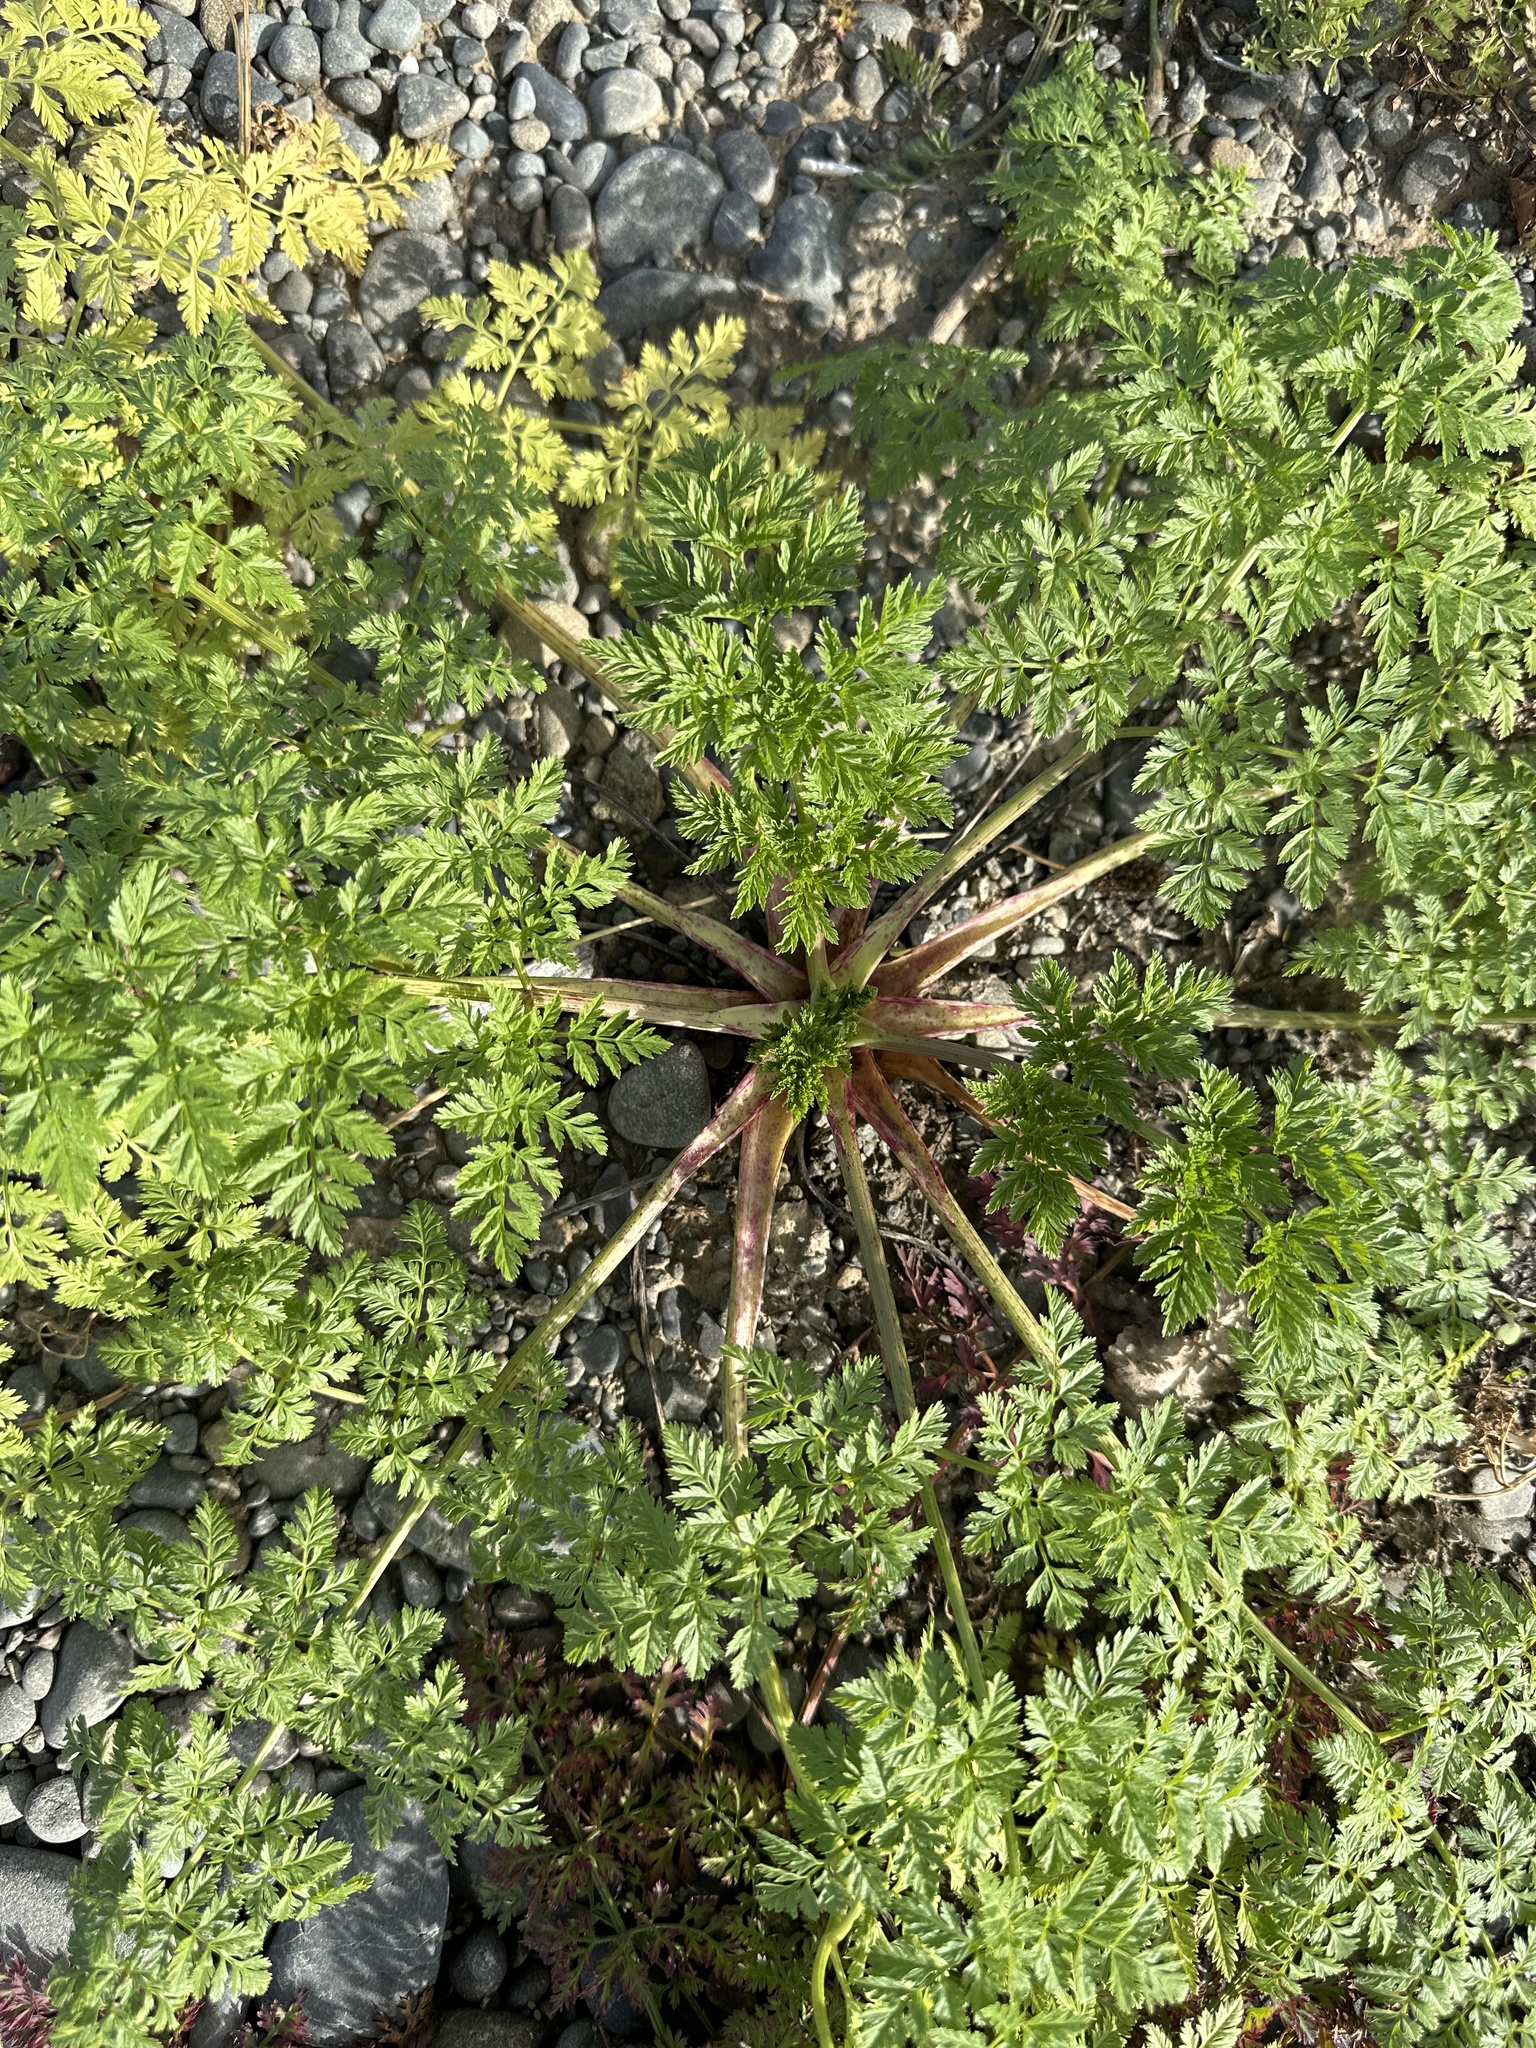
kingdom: Plantae
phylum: Tracheophyta
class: Magnoliopsida
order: Apiales
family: Apiaceae
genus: Conium
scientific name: Conium maculatum
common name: Hemlock
